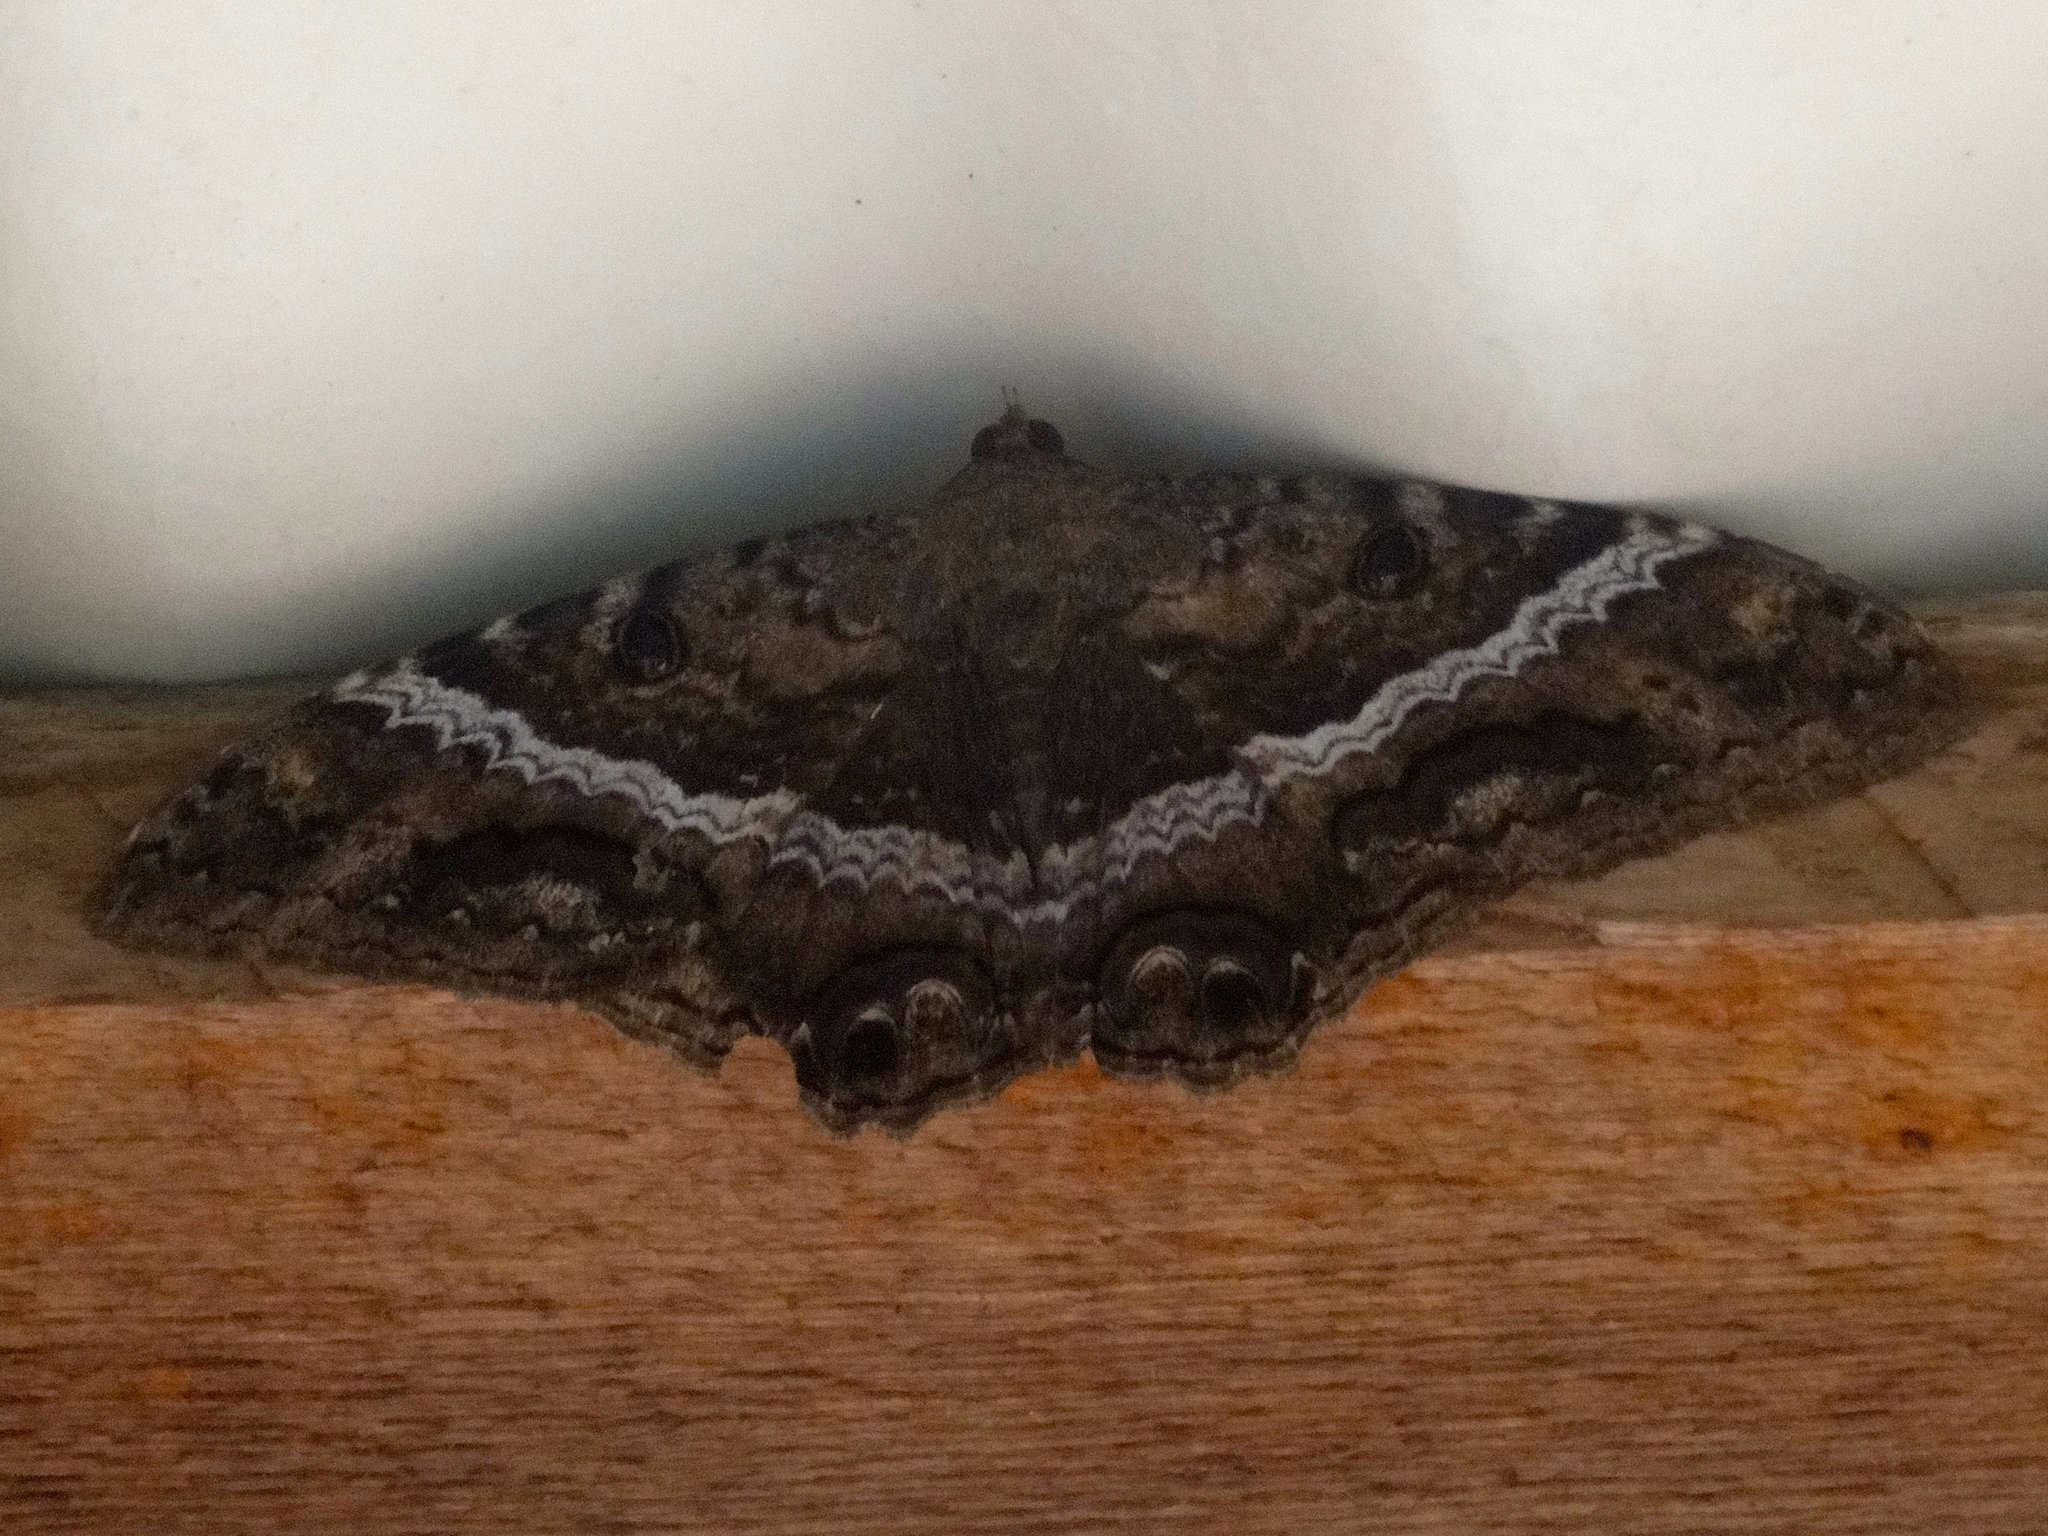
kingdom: Animalia
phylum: Arthropoda
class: Insecta
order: Lepidoptera
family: Erebidae
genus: Ascalapha
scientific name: Ascalapha odorata
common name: Black witch
